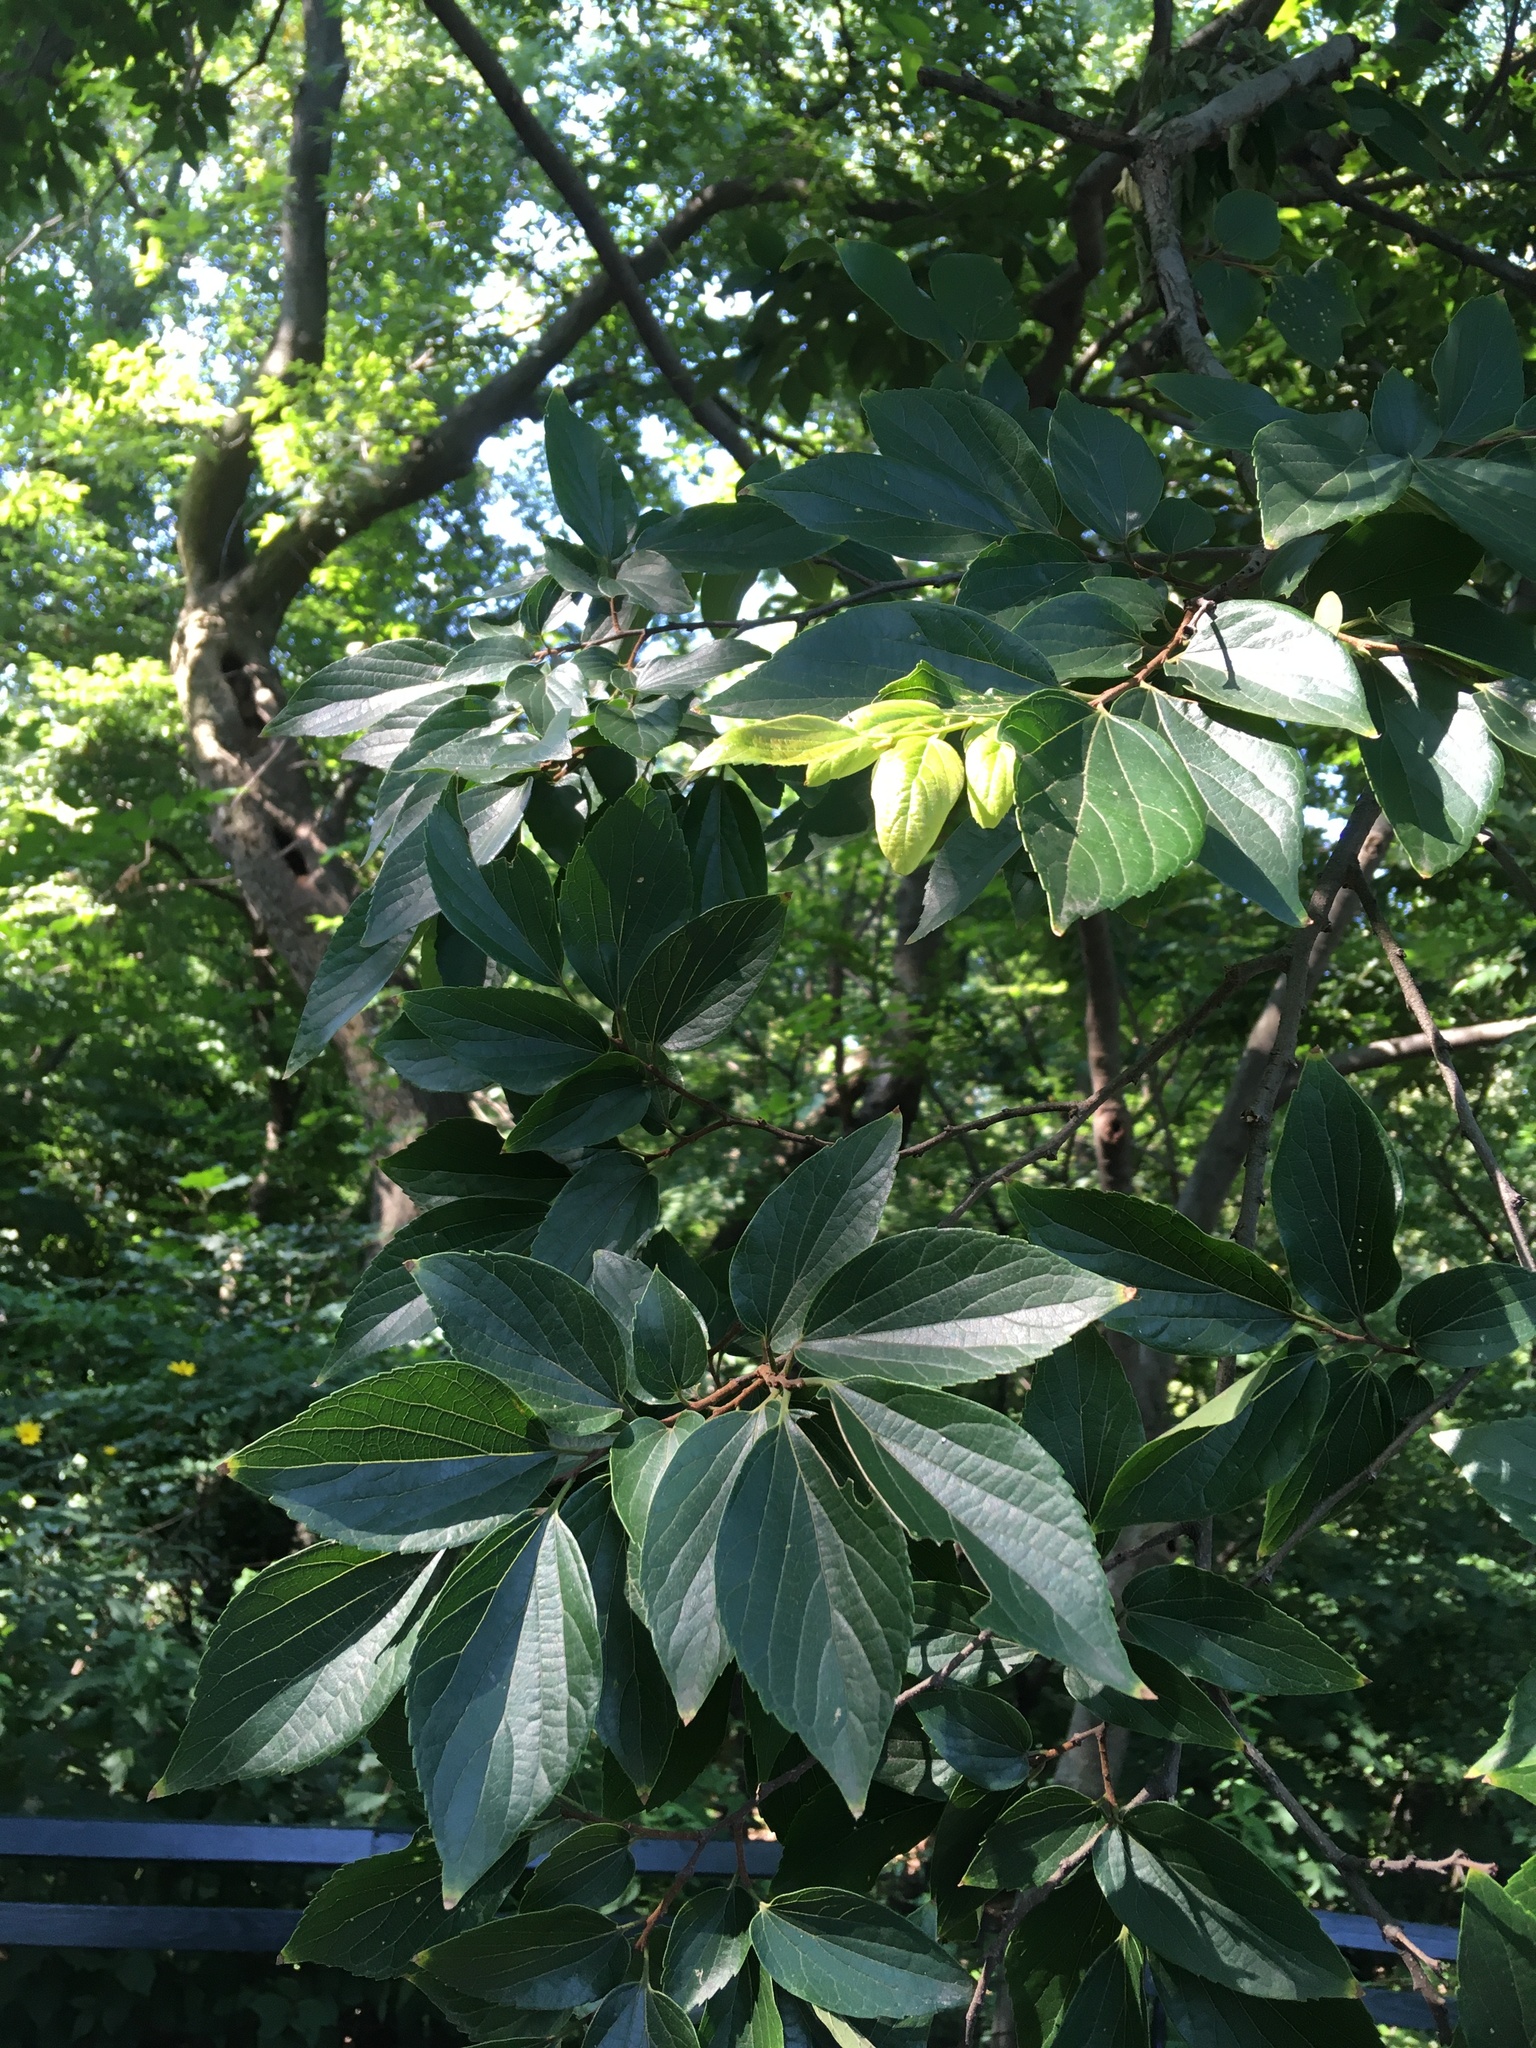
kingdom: Plantae
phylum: Tracheophyta
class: Magnoliopsida
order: Rosales
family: Cannabaceae
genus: Celtis
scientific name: Celtis sinensis
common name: Chinese hackberry
